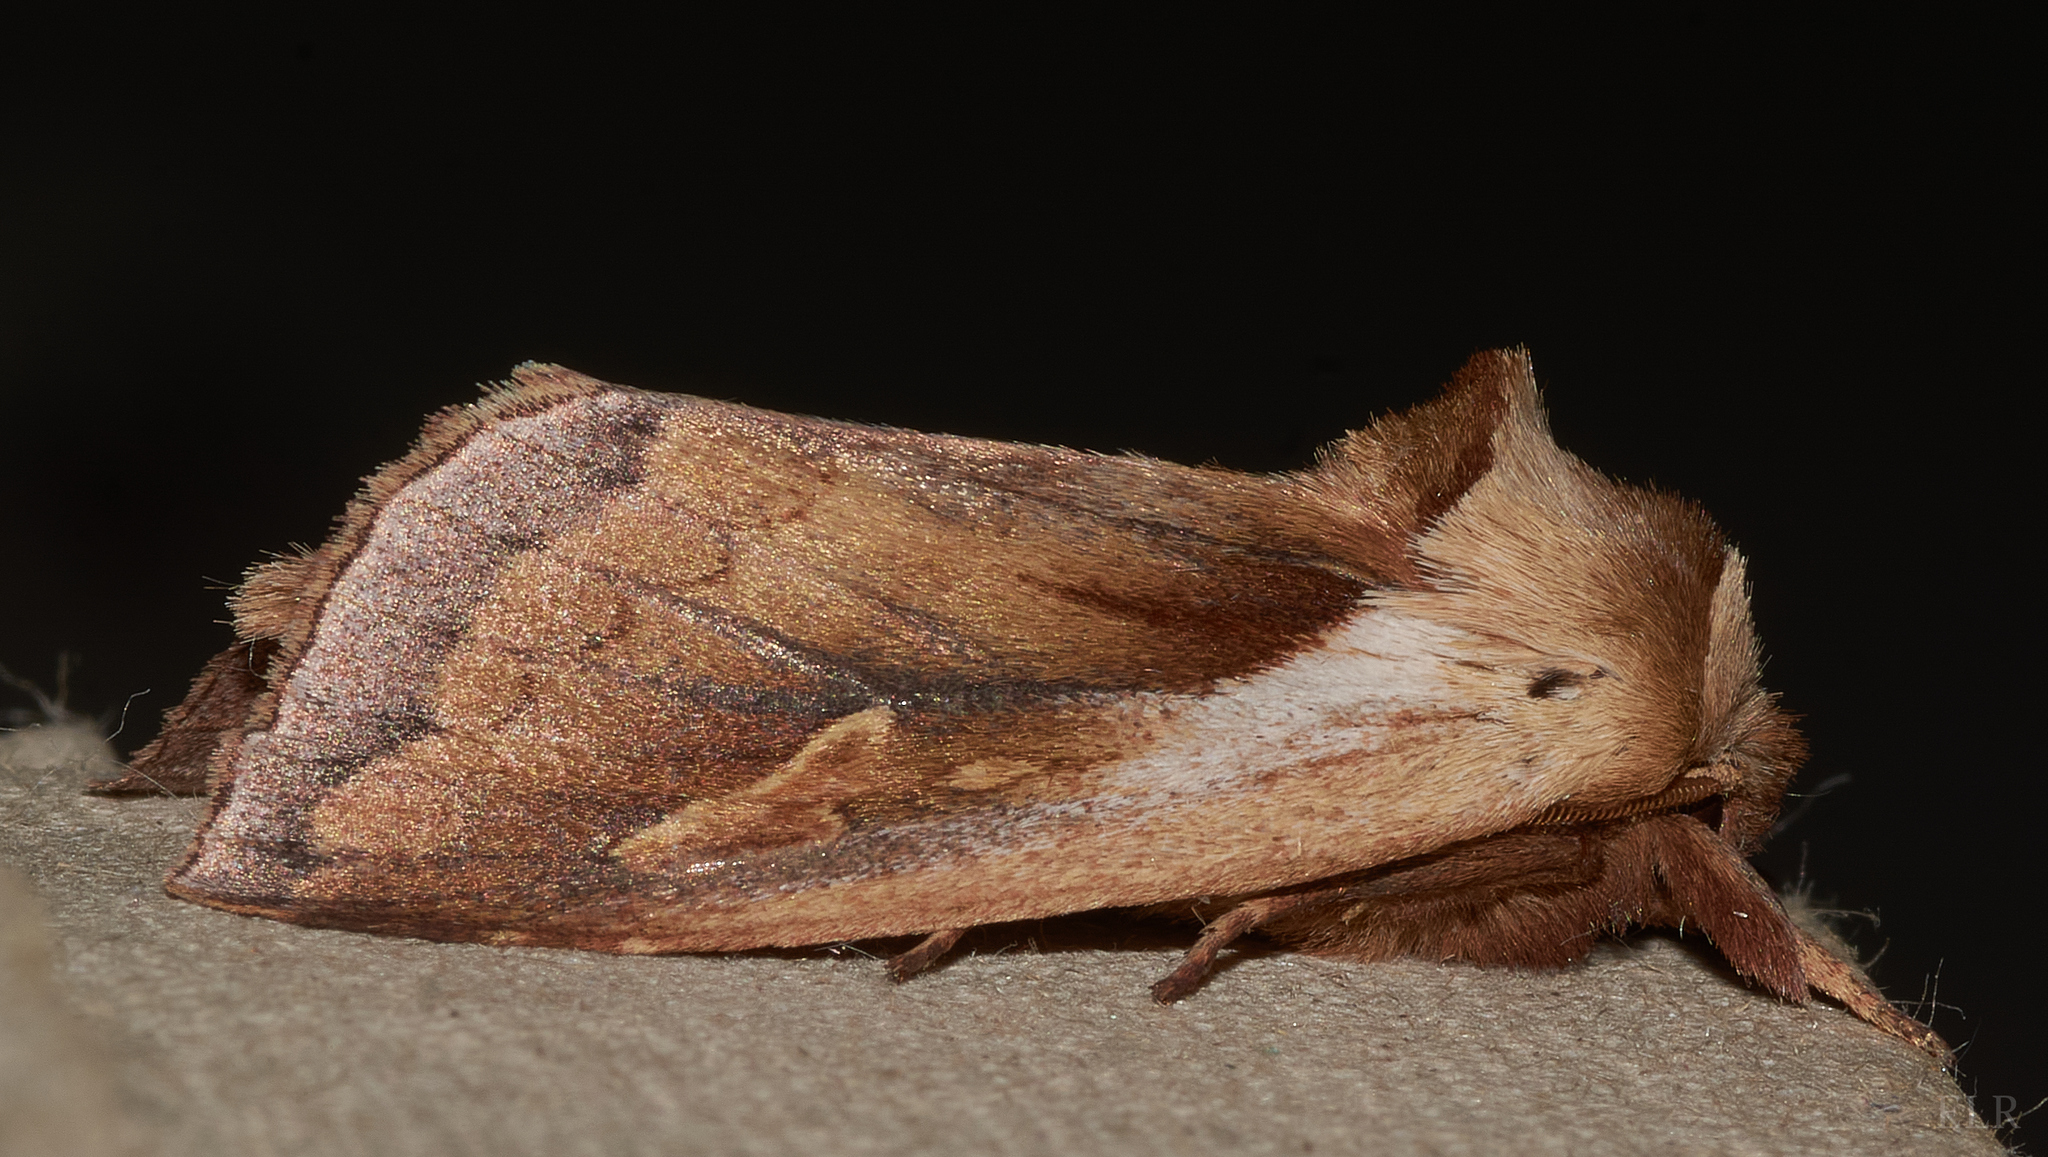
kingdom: Animalia
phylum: Arthropoda
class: Insecta
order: Lepidoptera
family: Noctuidae
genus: Bellura
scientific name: Bellura obliqua
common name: Cattail borer moth
